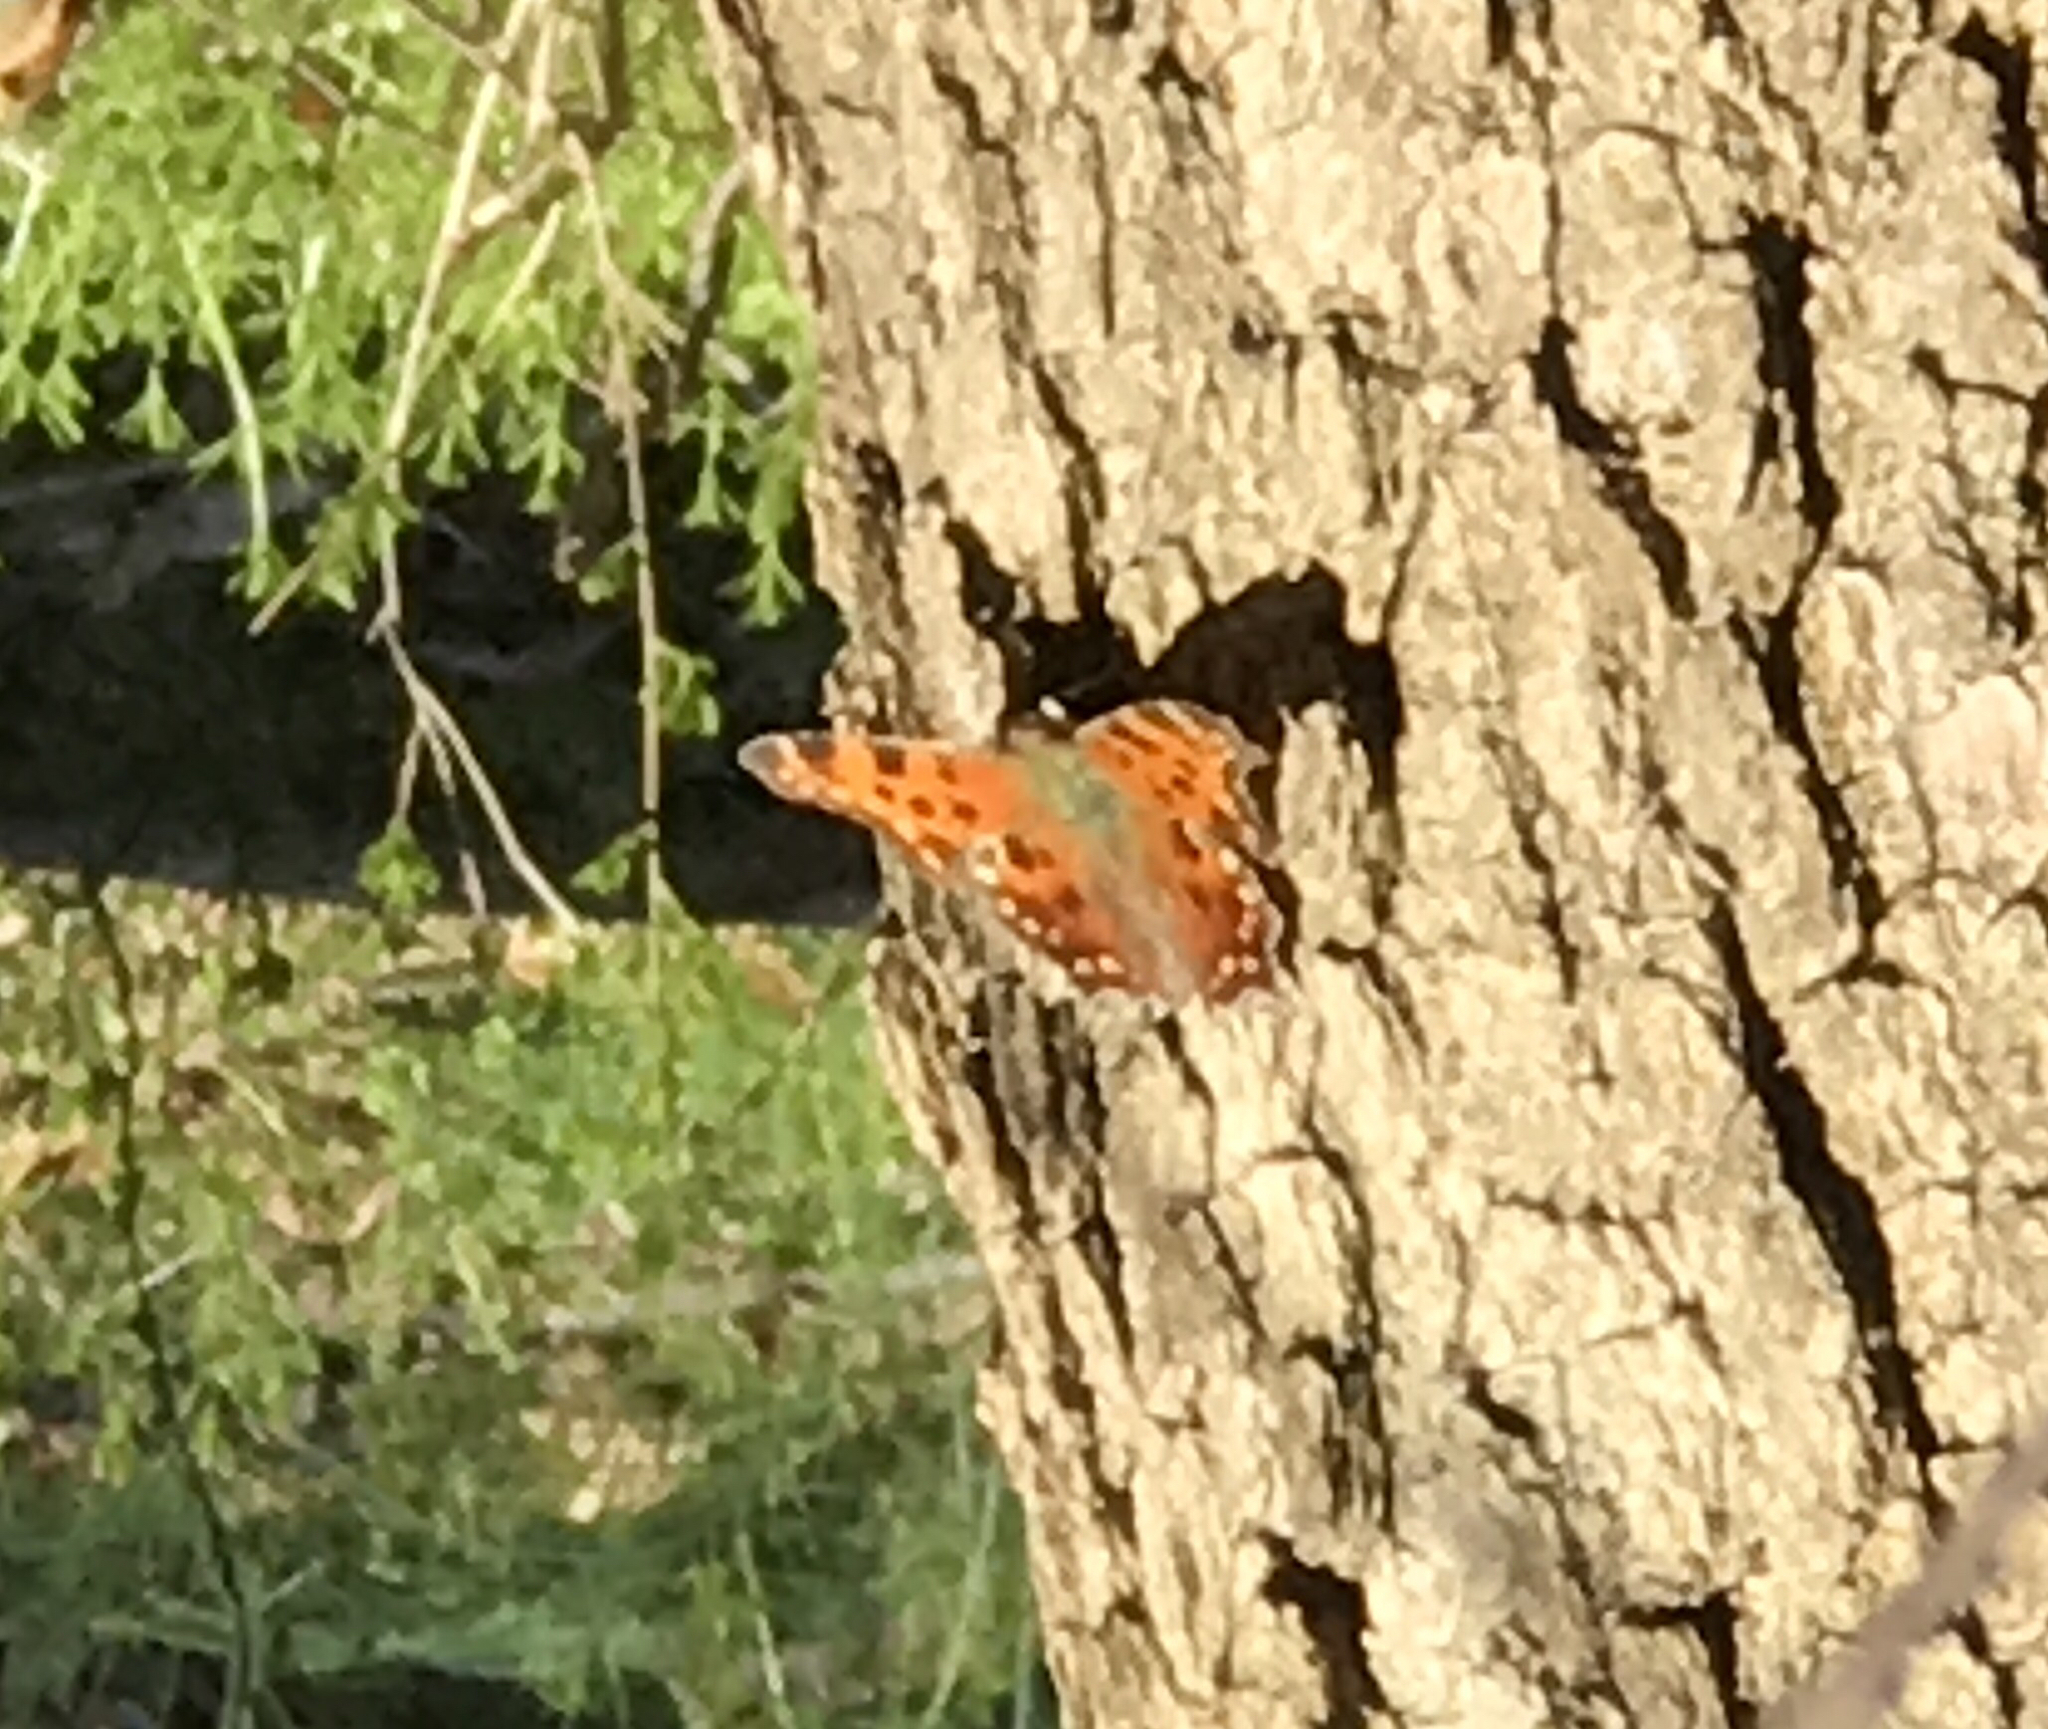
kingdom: Animalia
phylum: Arthropoda
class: Insecta
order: Lepidoptera
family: Nymphalidae
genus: Polygonia
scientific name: Polygonia comma
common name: Eastern comma
